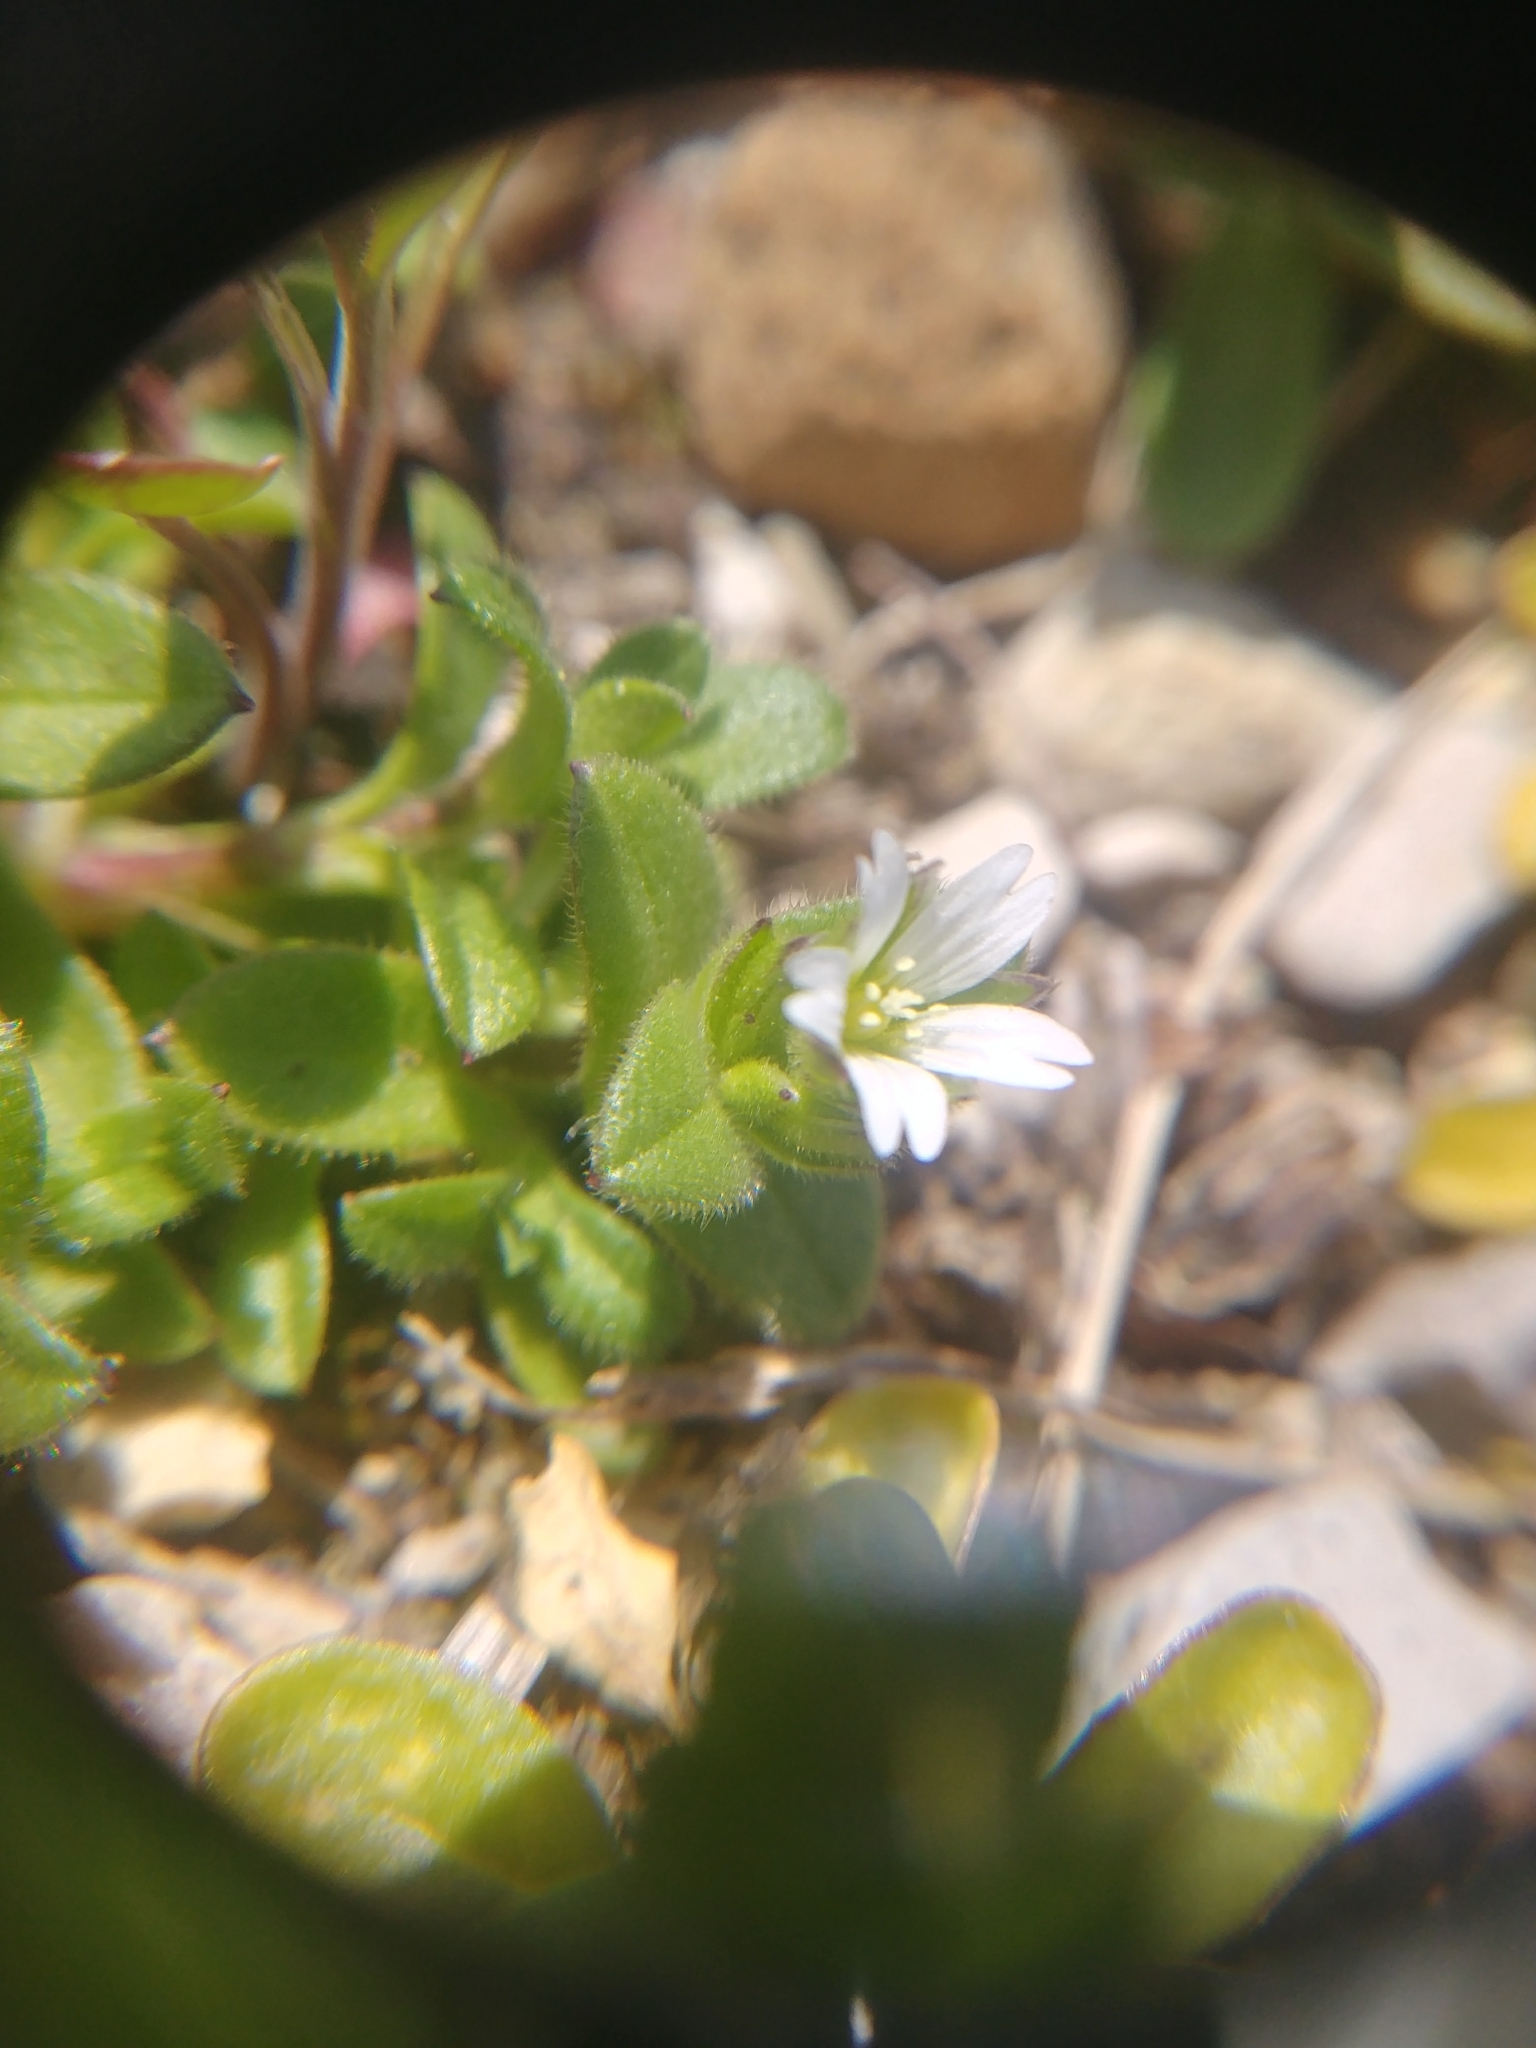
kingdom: Plantae
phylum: Tracheophyta
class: Magnoliopsida
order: Caryophyllales
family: Caryophyllaceae
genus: Cerastium
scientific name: Cerastium semidecandrum
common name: Little mouse-ear
